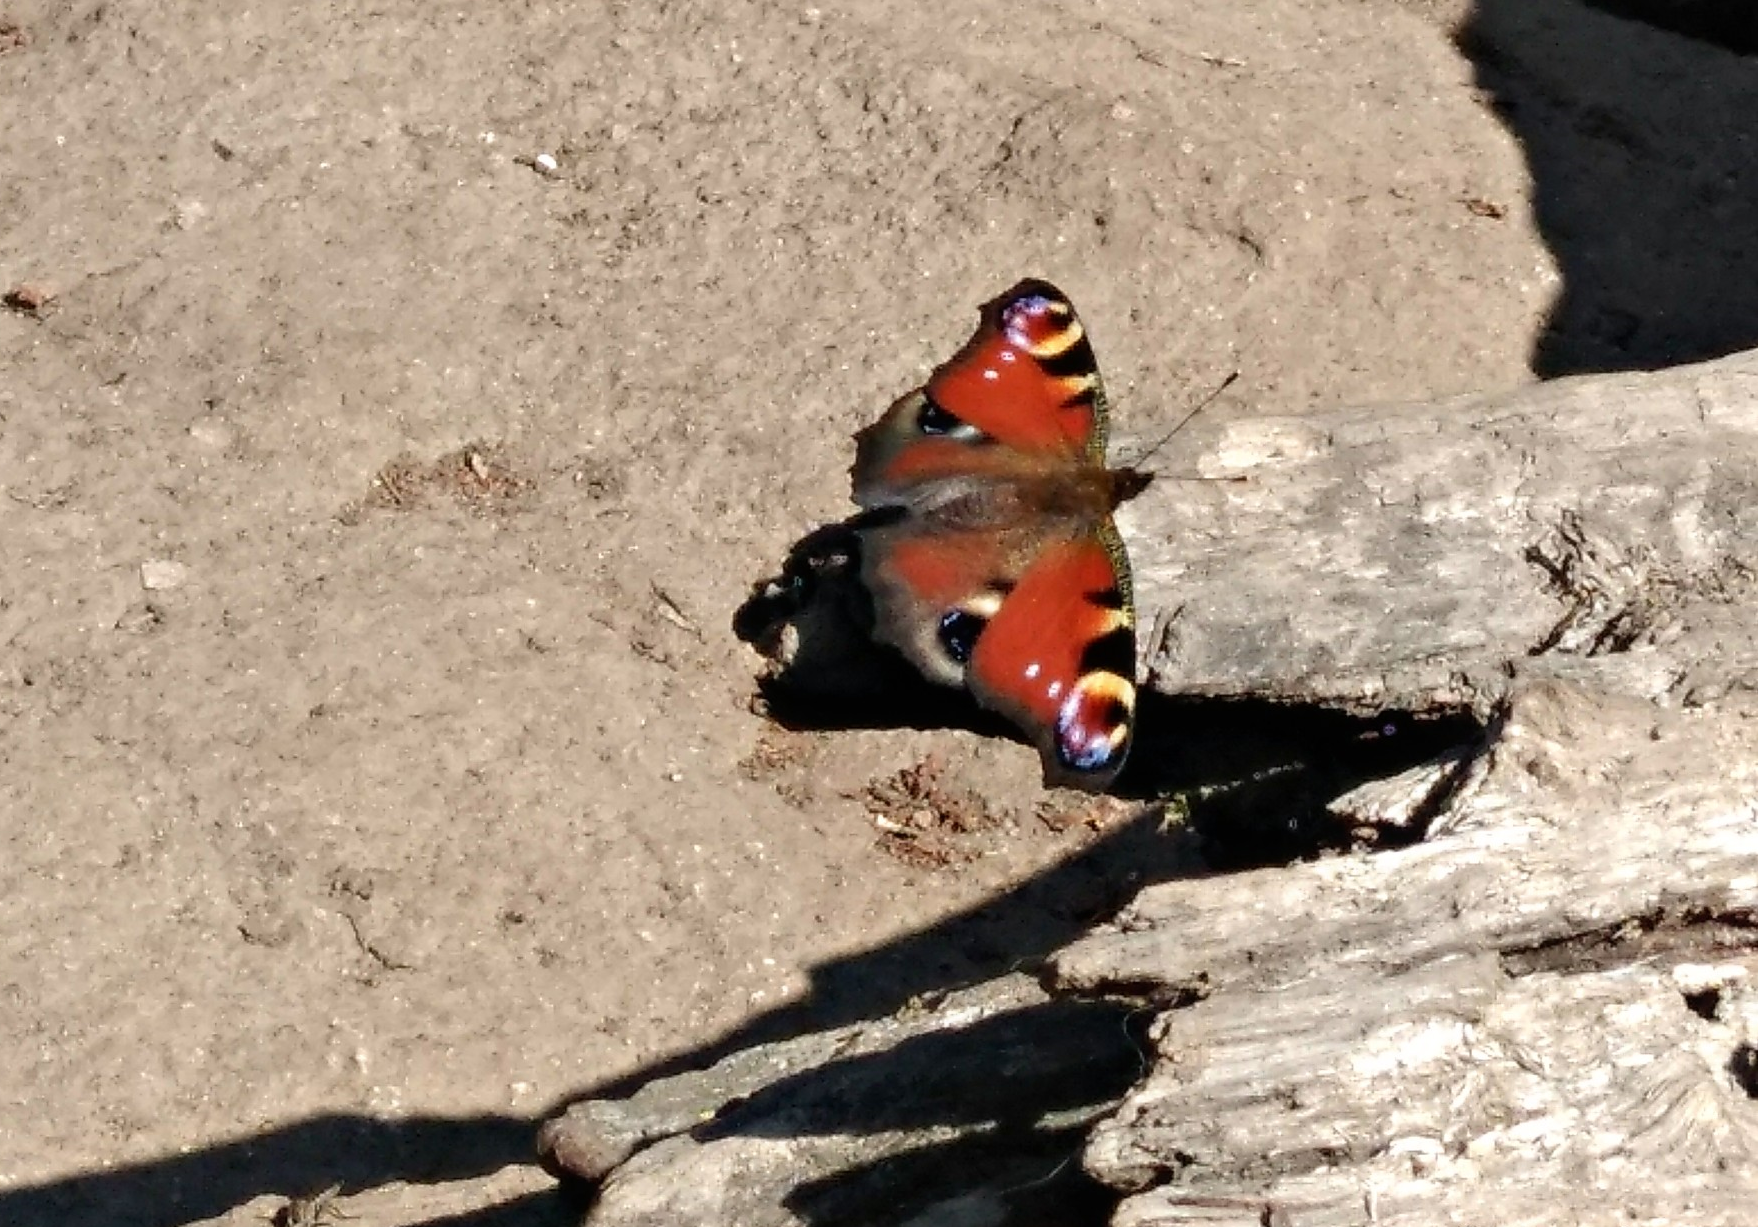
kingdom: Animalia
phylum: Arthropoda
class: Insecta
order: Lepidoptera
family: Nymphalidae
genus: Aglais
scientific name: Aglais io
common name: Peacock
